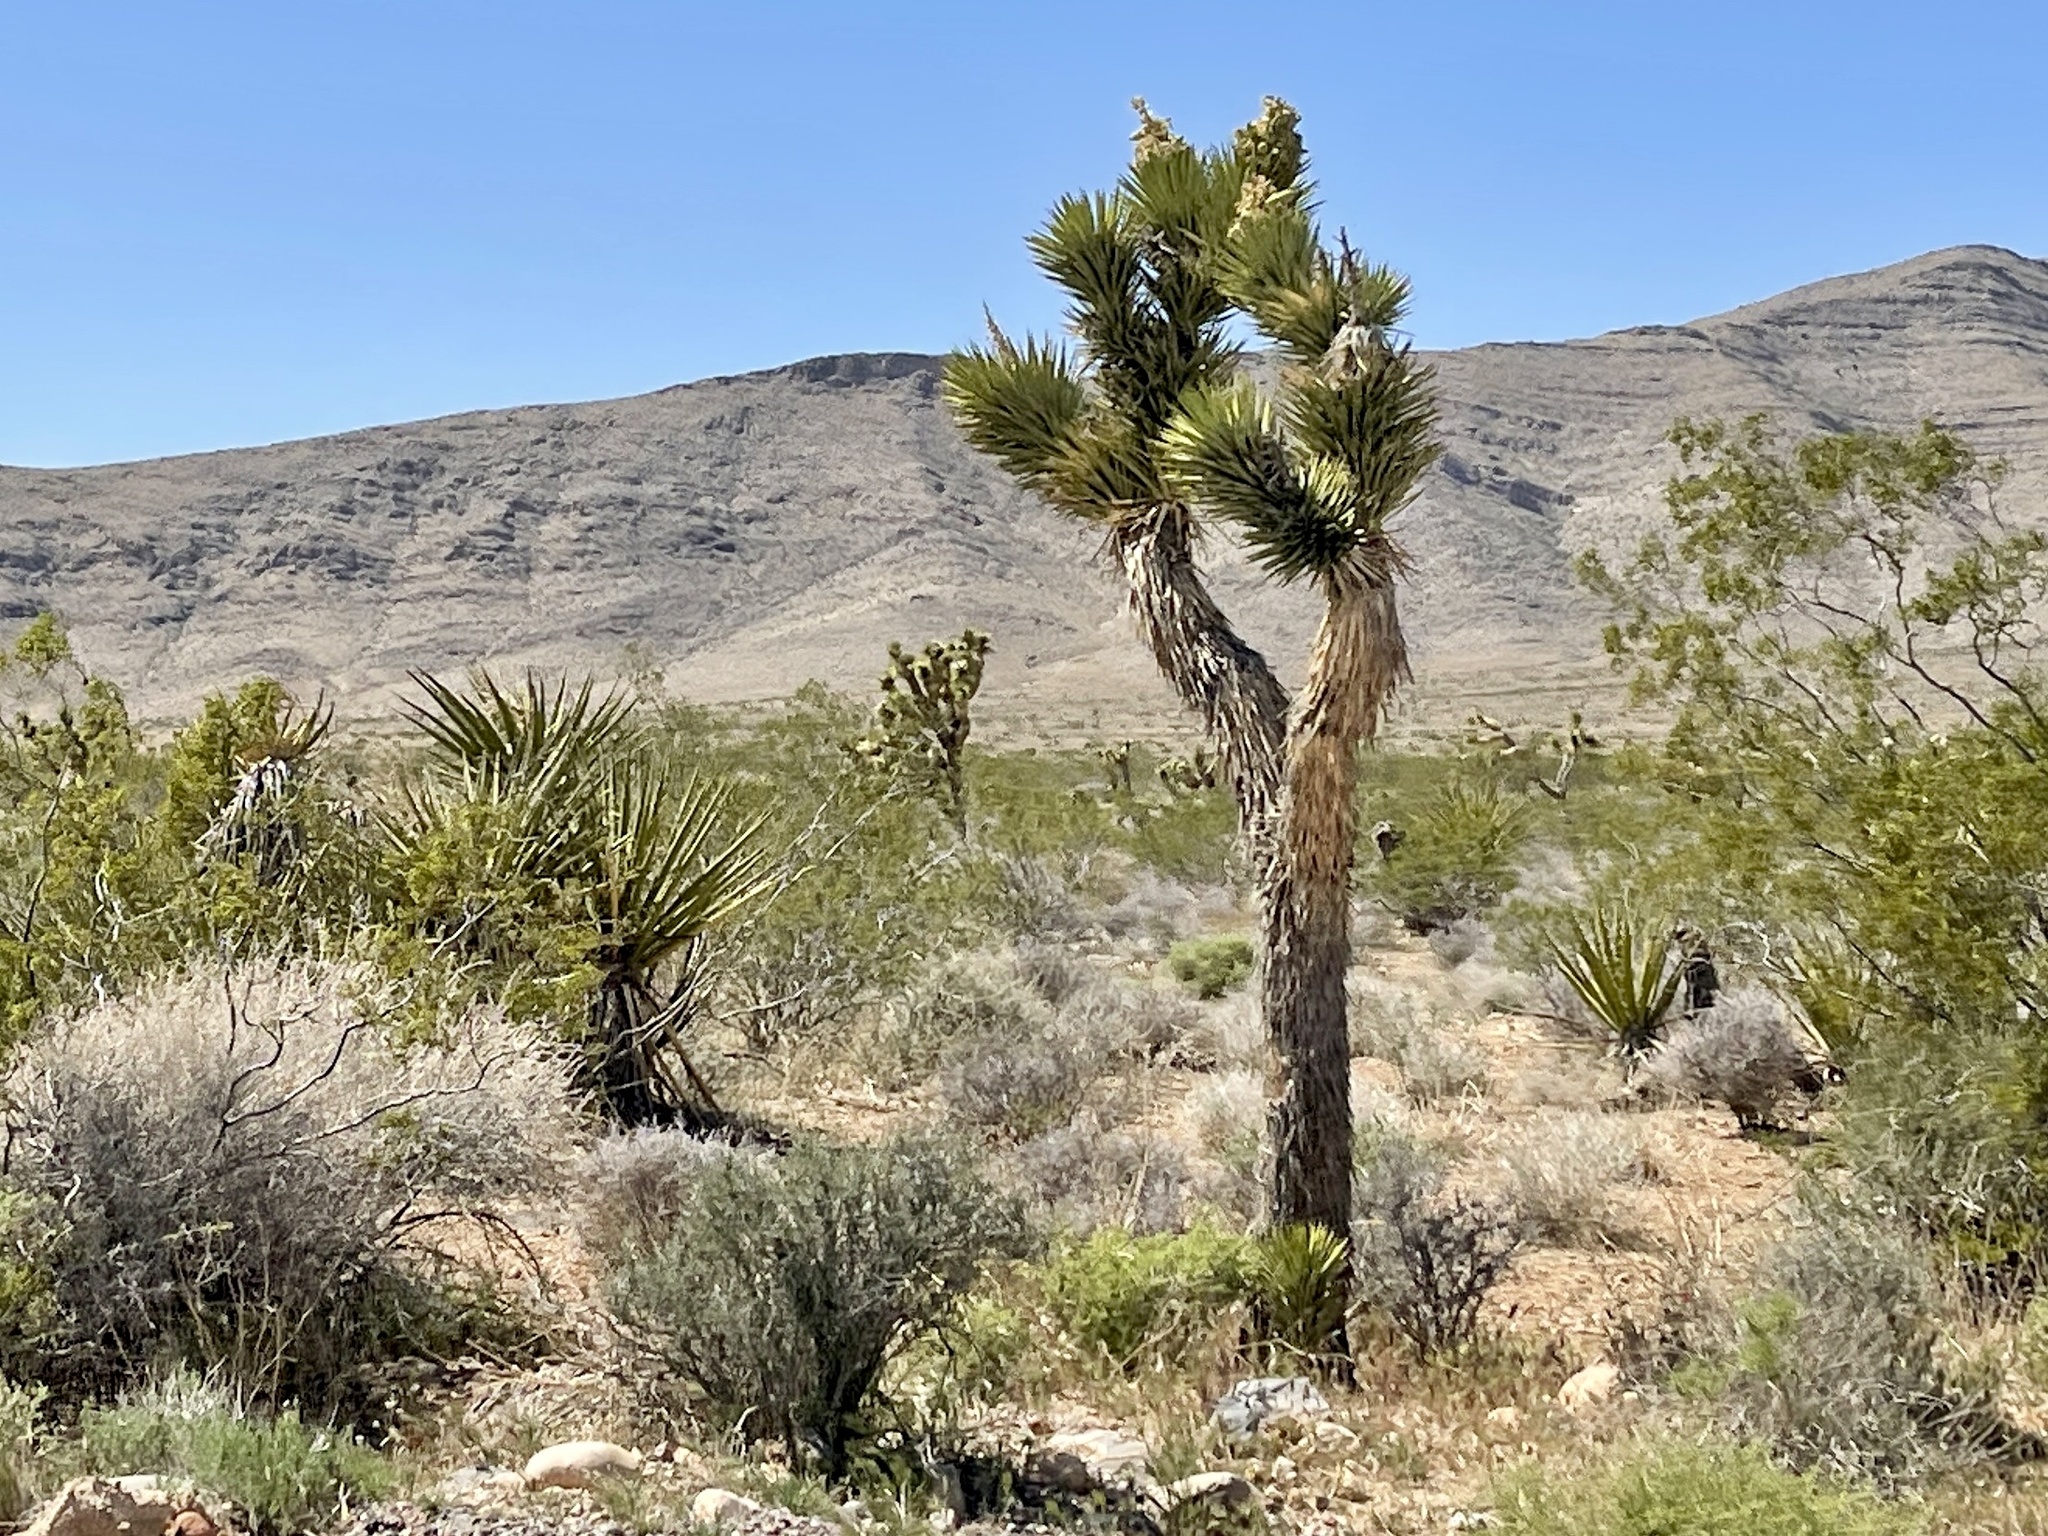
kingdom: Plantae
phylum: Tracheophyta
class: Liliopsida
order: Asparagales
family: Asparagaceae
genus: Yucca
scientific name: Yucca brevifolia
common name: Joshua tree
